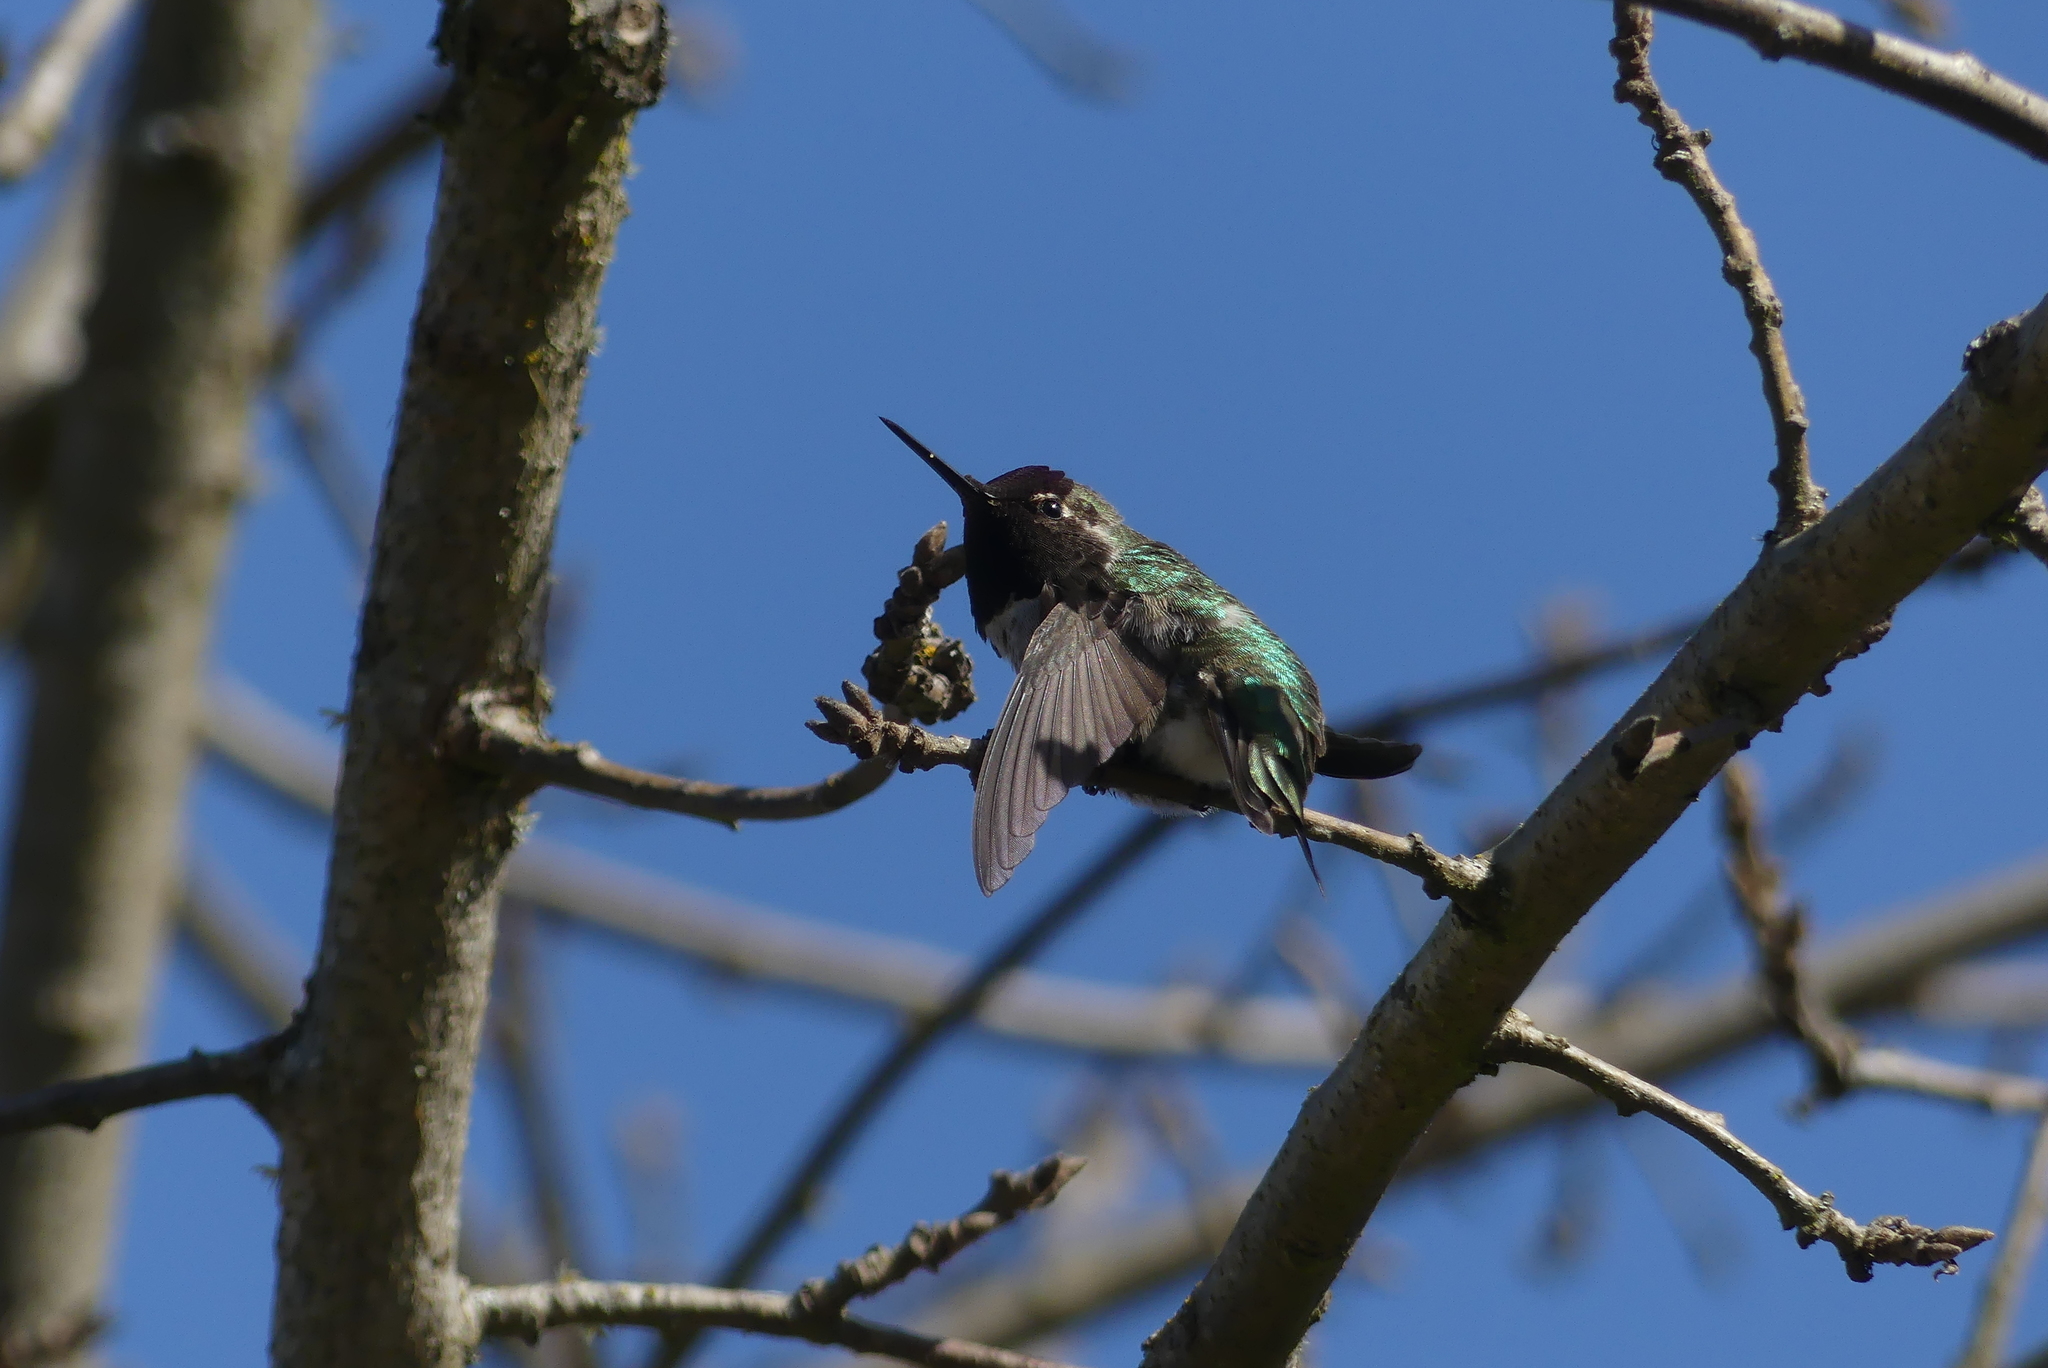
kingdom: Animalia
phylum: Chordata
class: Aves
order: Apodiformes
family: Trochilidae
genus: Calypte
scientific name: Calypte anna
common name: Anna's hummingbird
